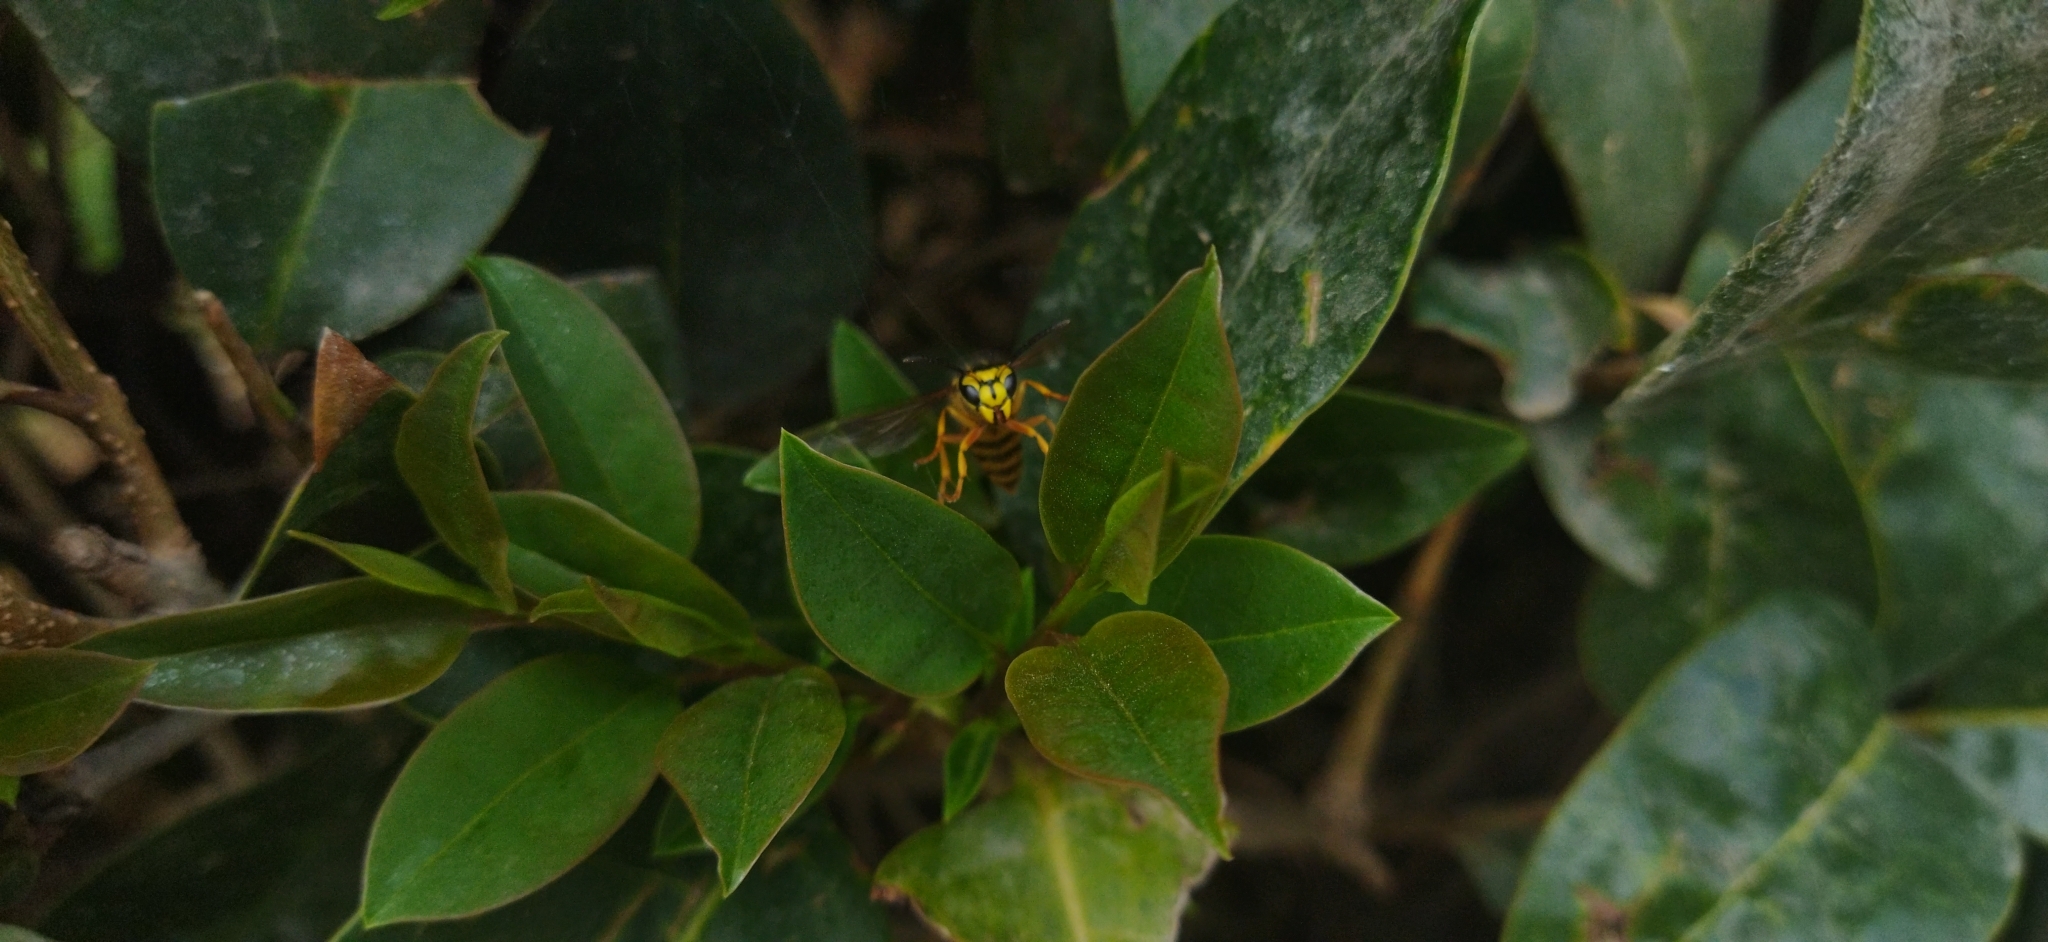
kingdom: Animalia
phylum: Arthropoda
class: Insecta
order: Hymenoptera
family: Vespidae
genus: Vespula
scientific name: Vespula squamosa
